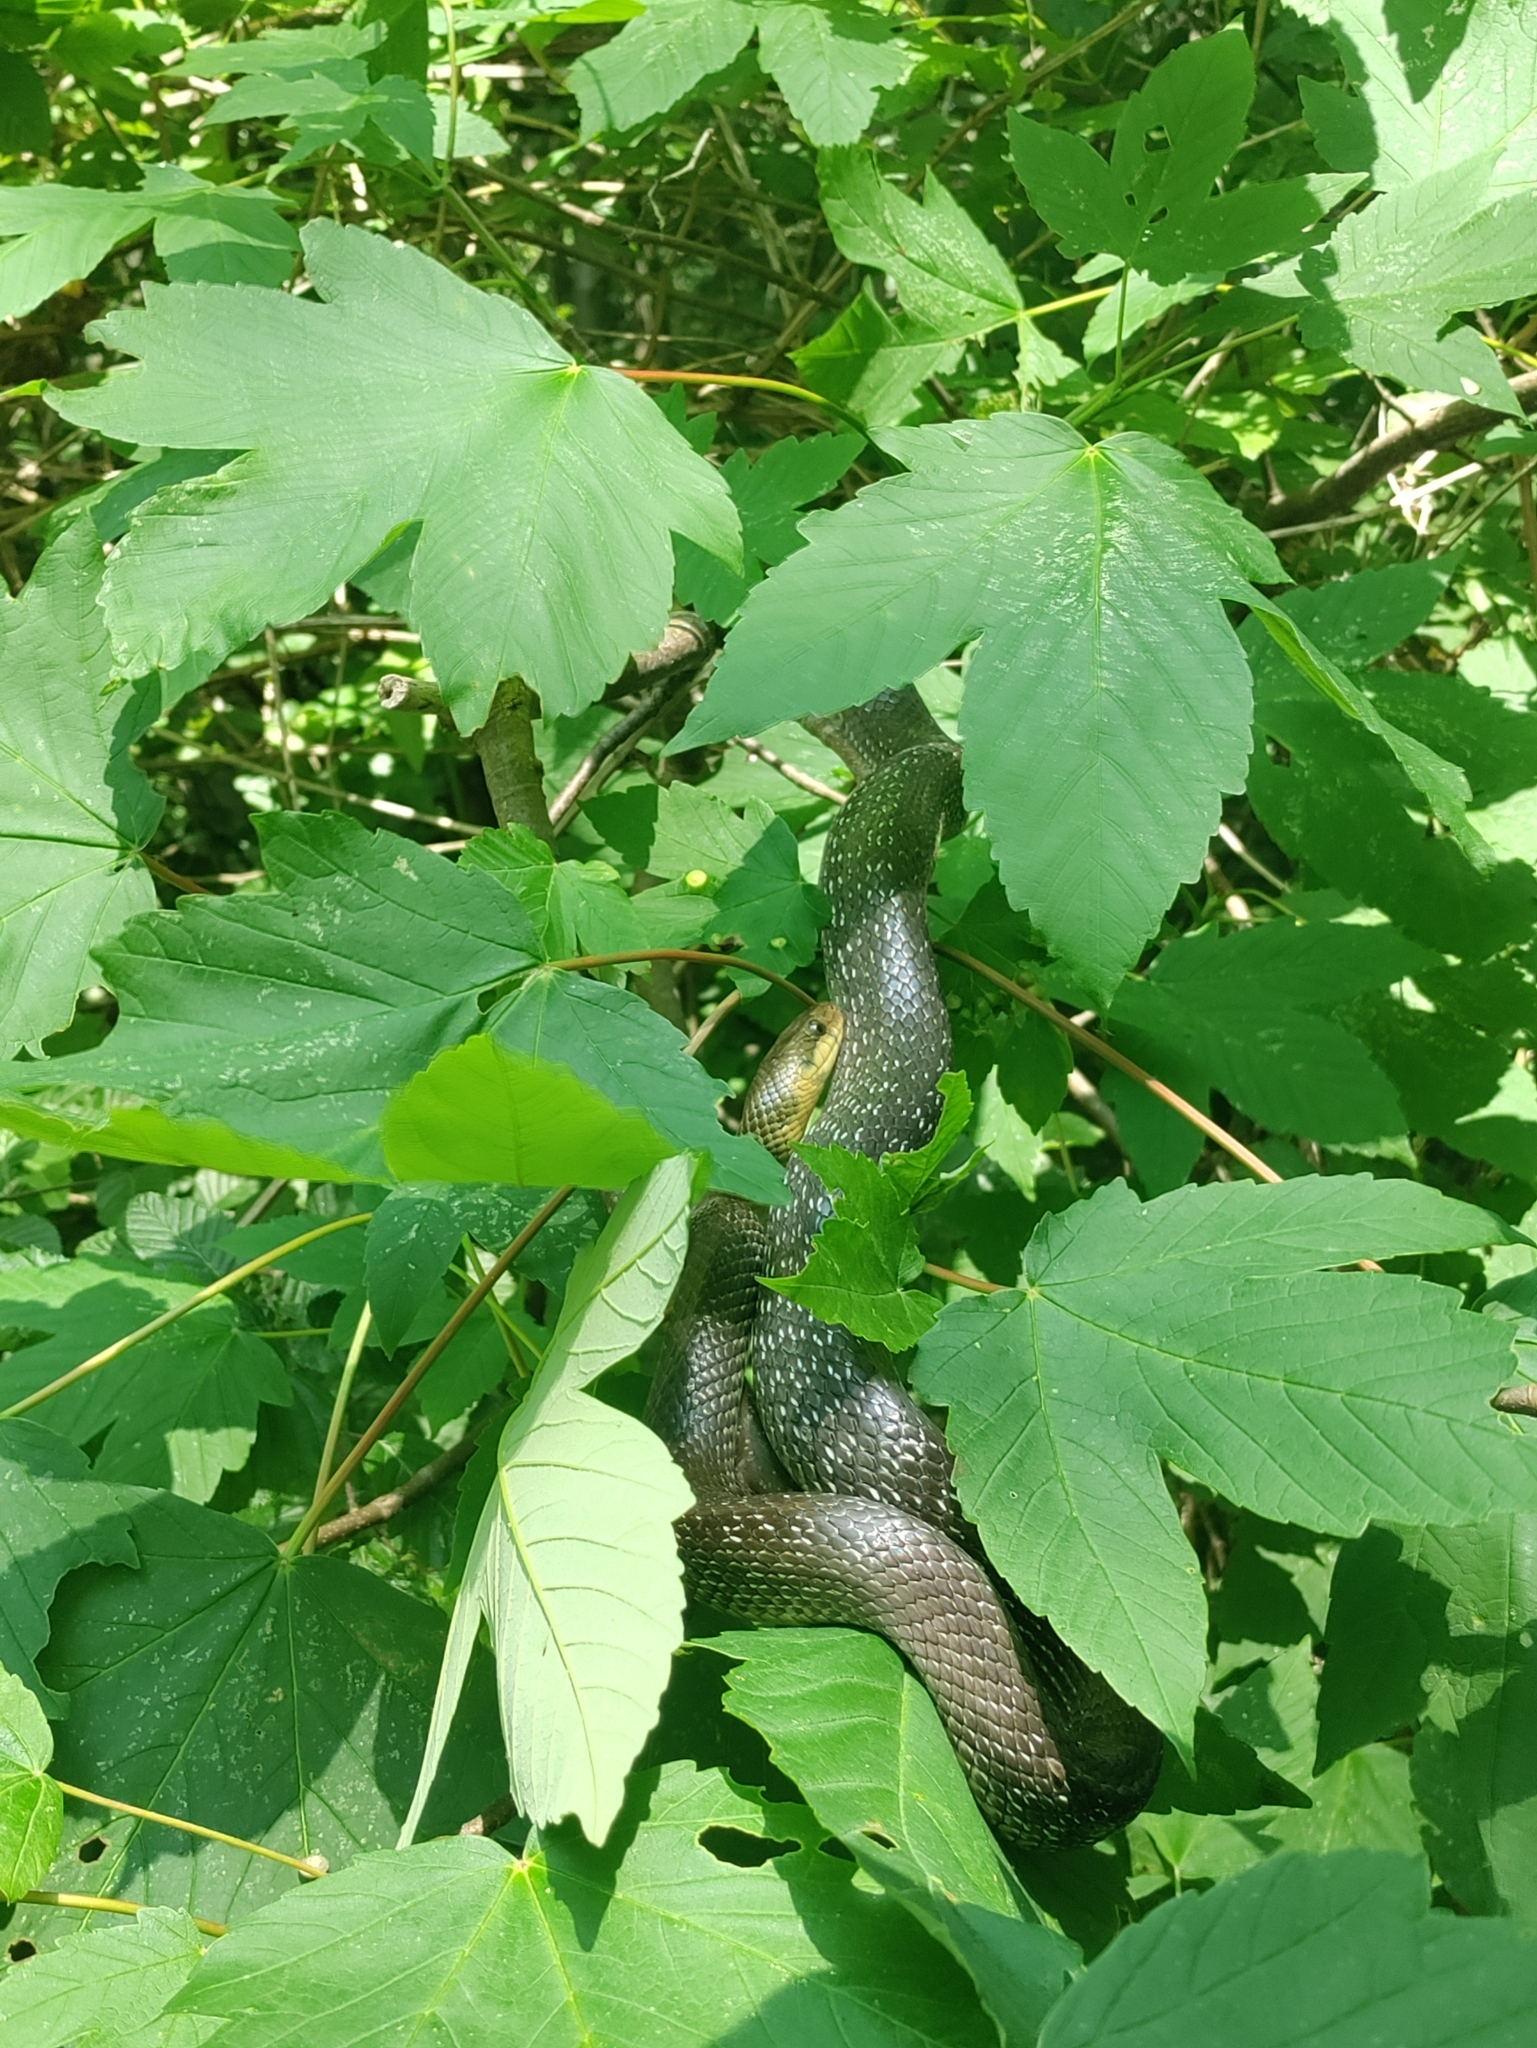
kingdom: Animalia
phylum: Chordata
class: Squamata
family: Colubridae
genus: Zamenis
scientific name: Zamenis longissimus
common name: Aesculapean snake
